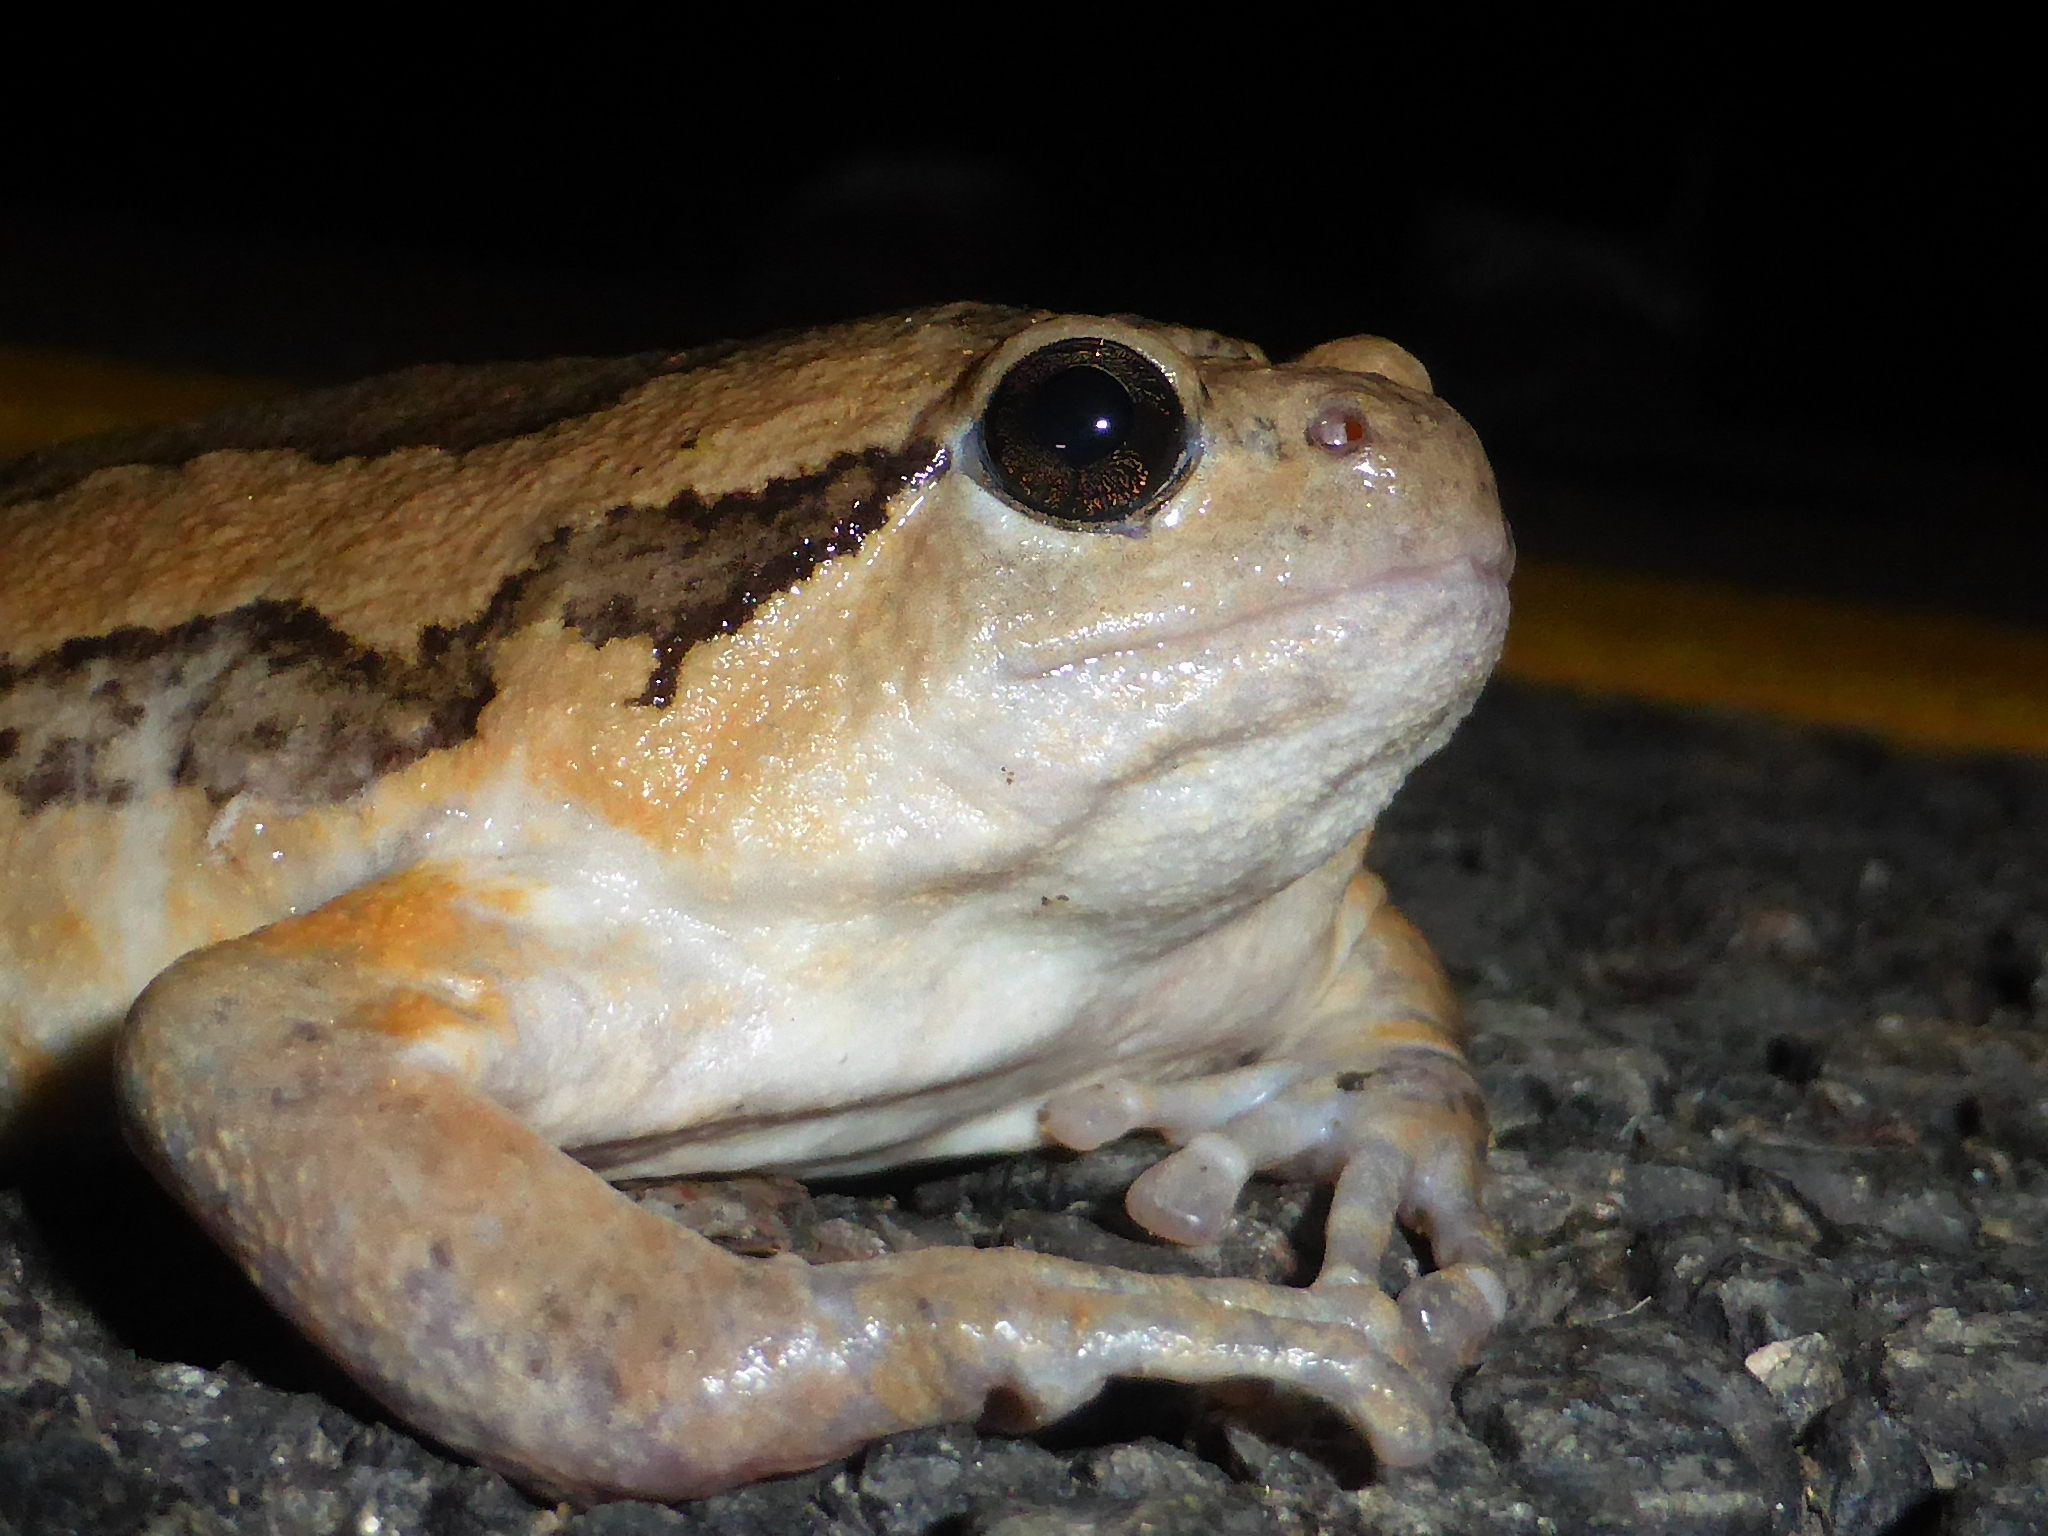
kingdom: Animalia
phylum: Chordata
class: Amphibia
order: Anura
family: Microhylidae
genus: Kaloula
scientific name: Kaloula pulchra
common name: Common,banded bullfrog
